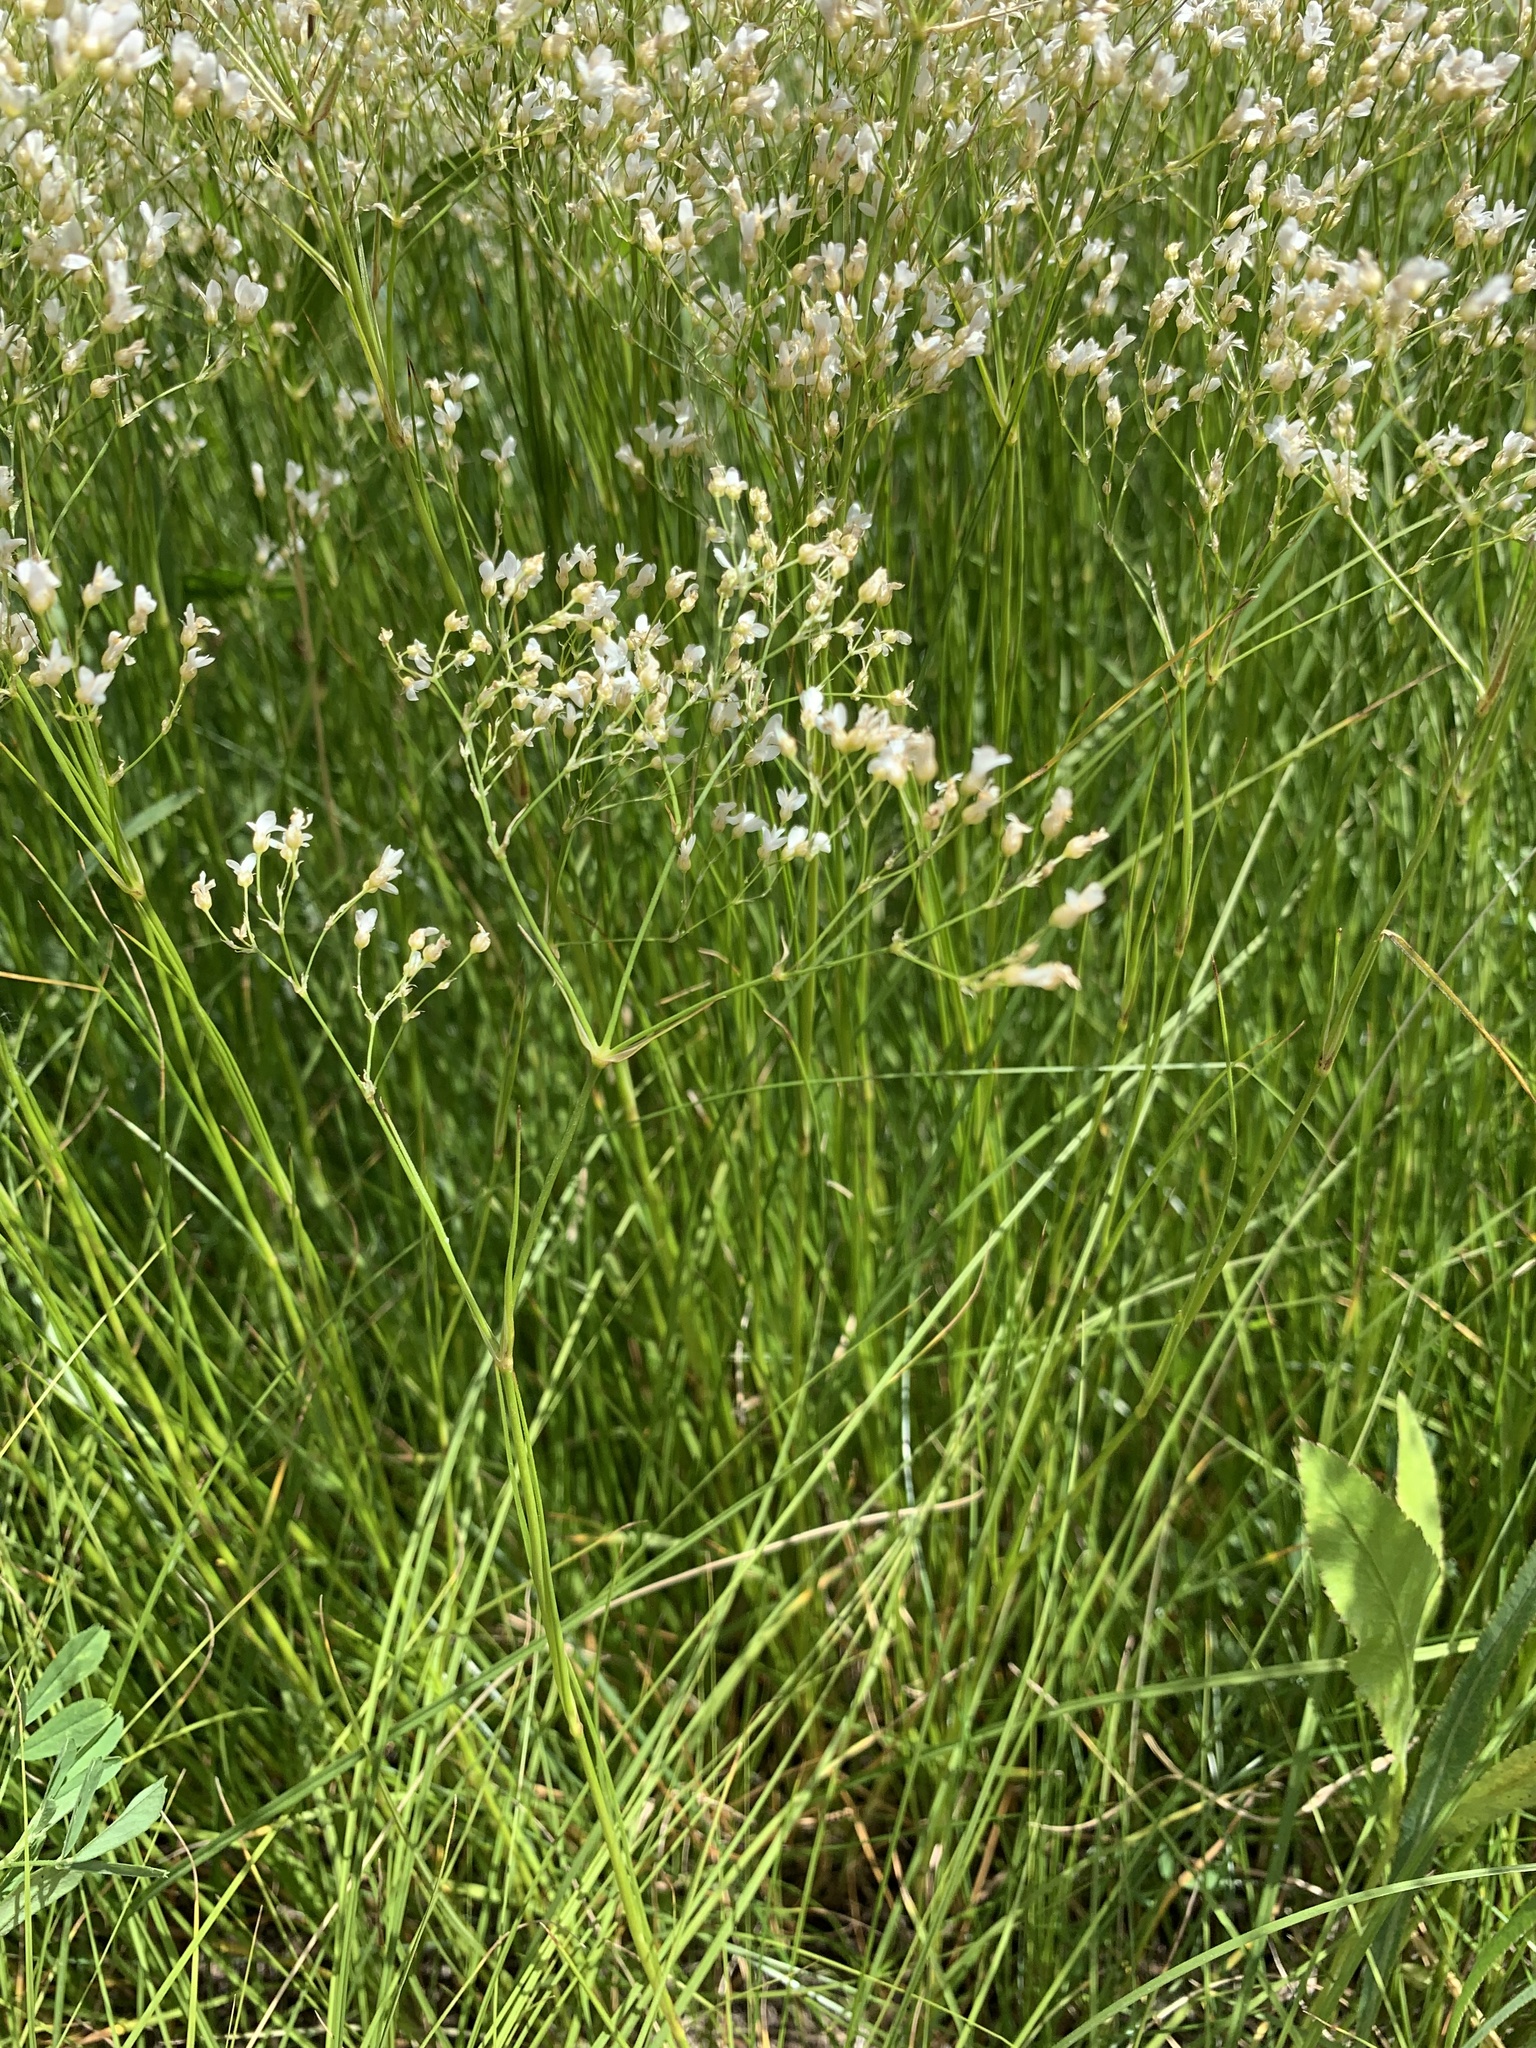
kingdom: Plantae
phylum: Tracheophyta
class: Magnoliopsida
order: Caryophyllales
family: Caryophyllaceae
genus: Eremogone
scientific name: Eremogone longifolia
